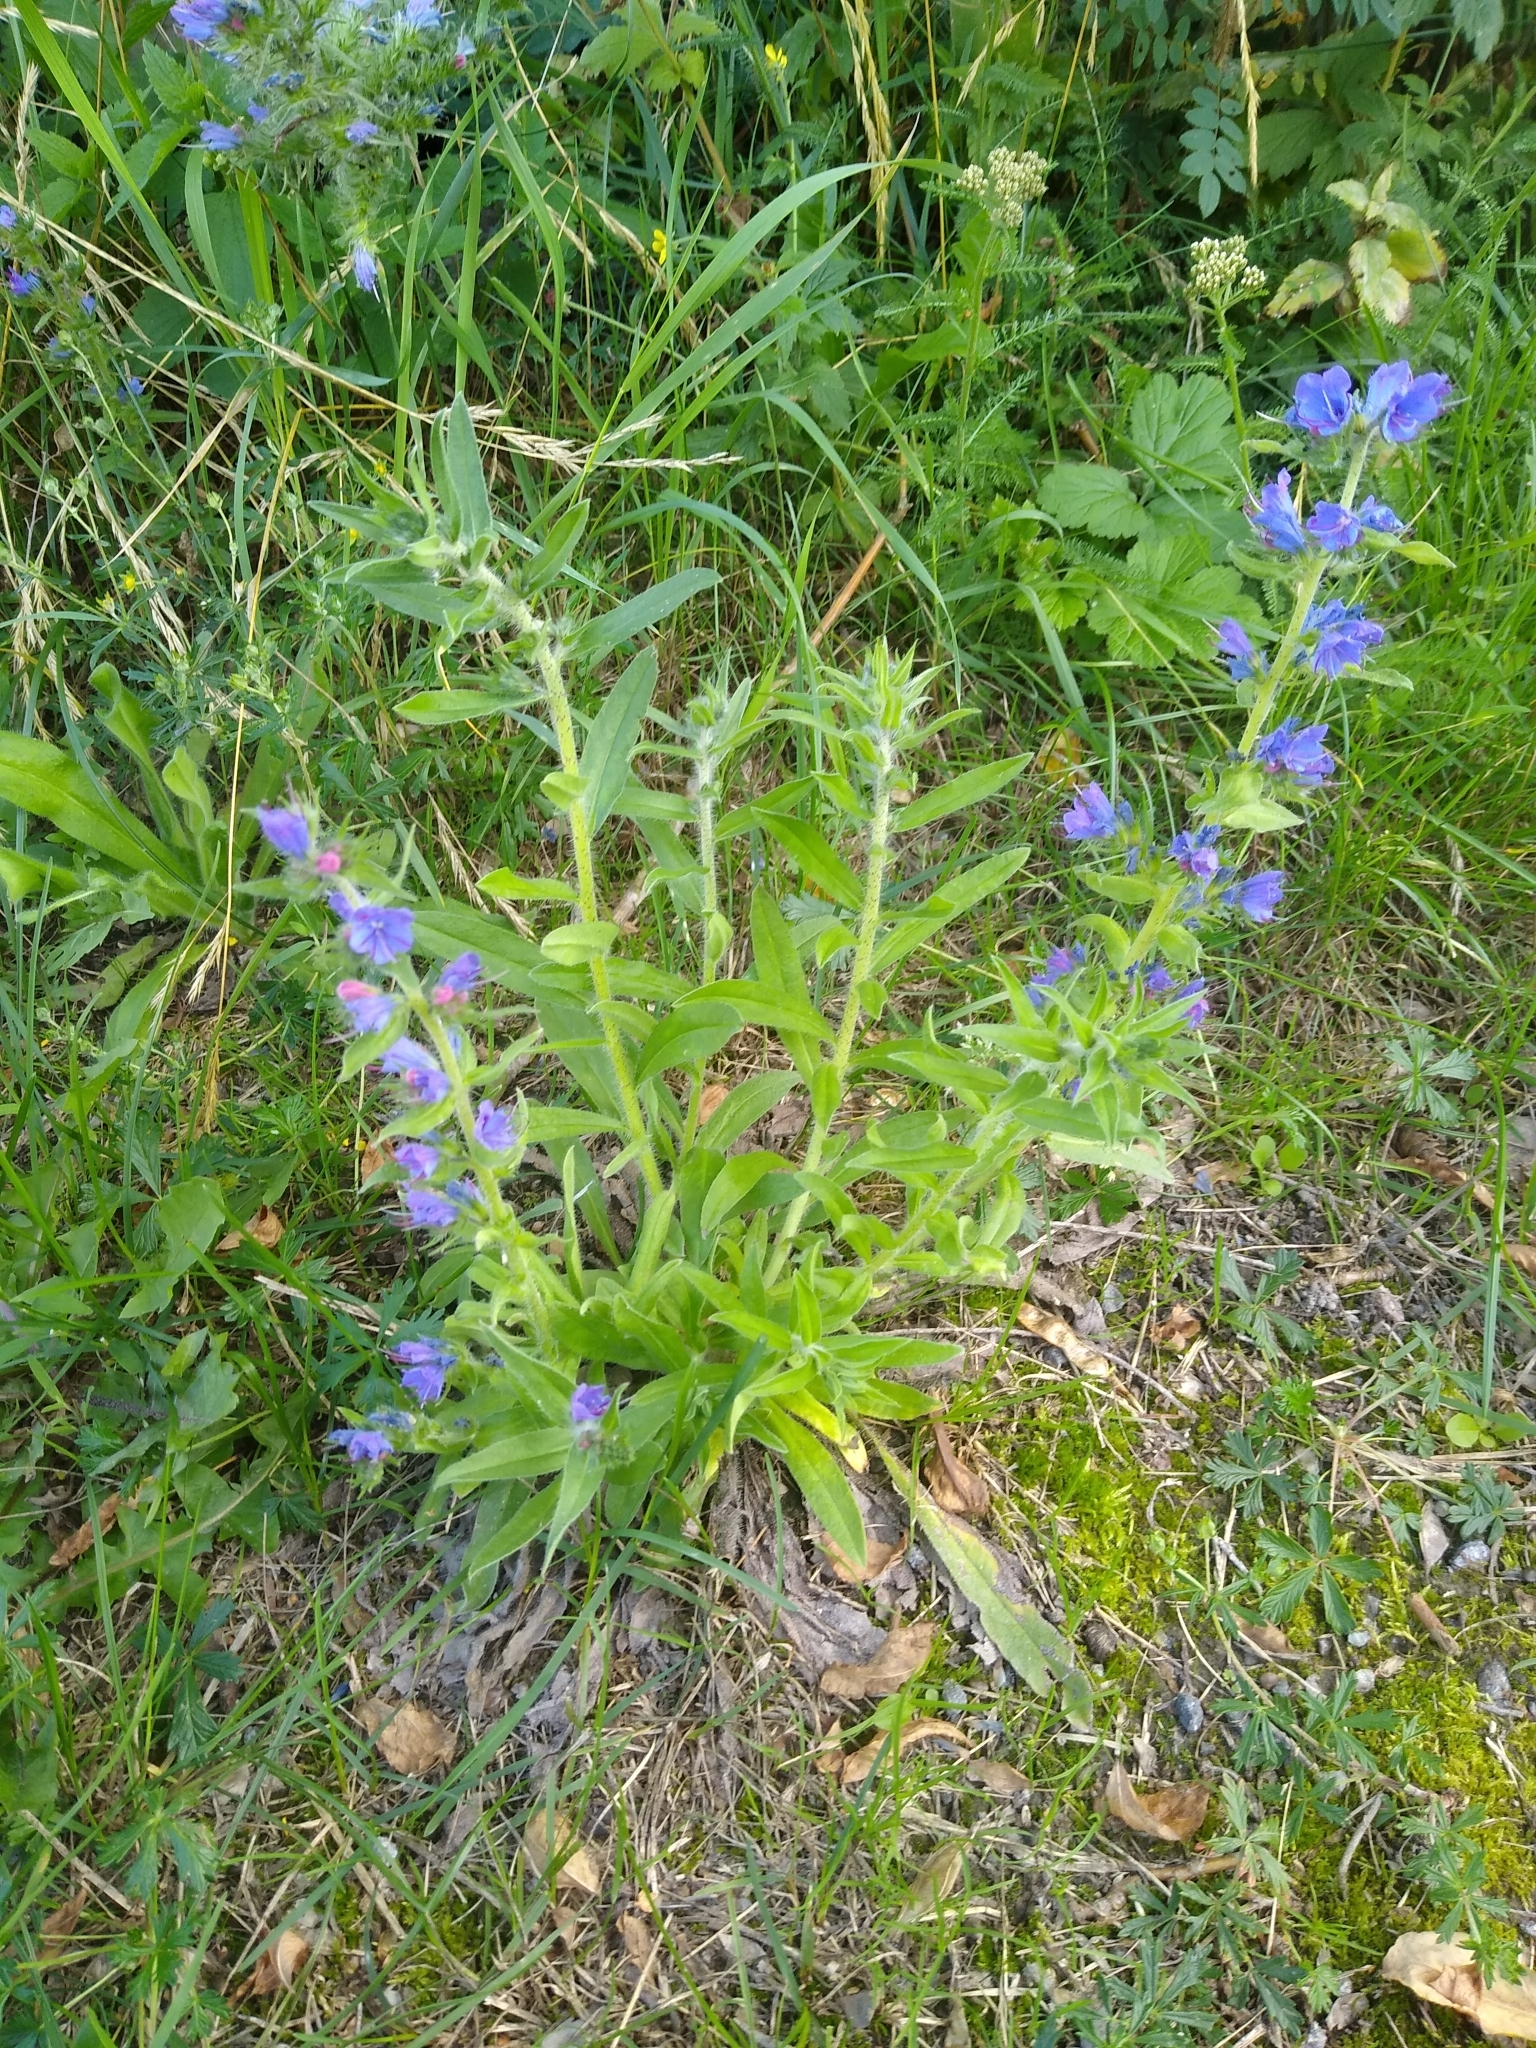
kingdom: Plantae
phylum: Tracheophyta
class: Magnoliopsida
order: Boraginales
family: Boraginaceae
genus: Echium
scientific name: Echium vulgare
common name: Common viper's bugloss
